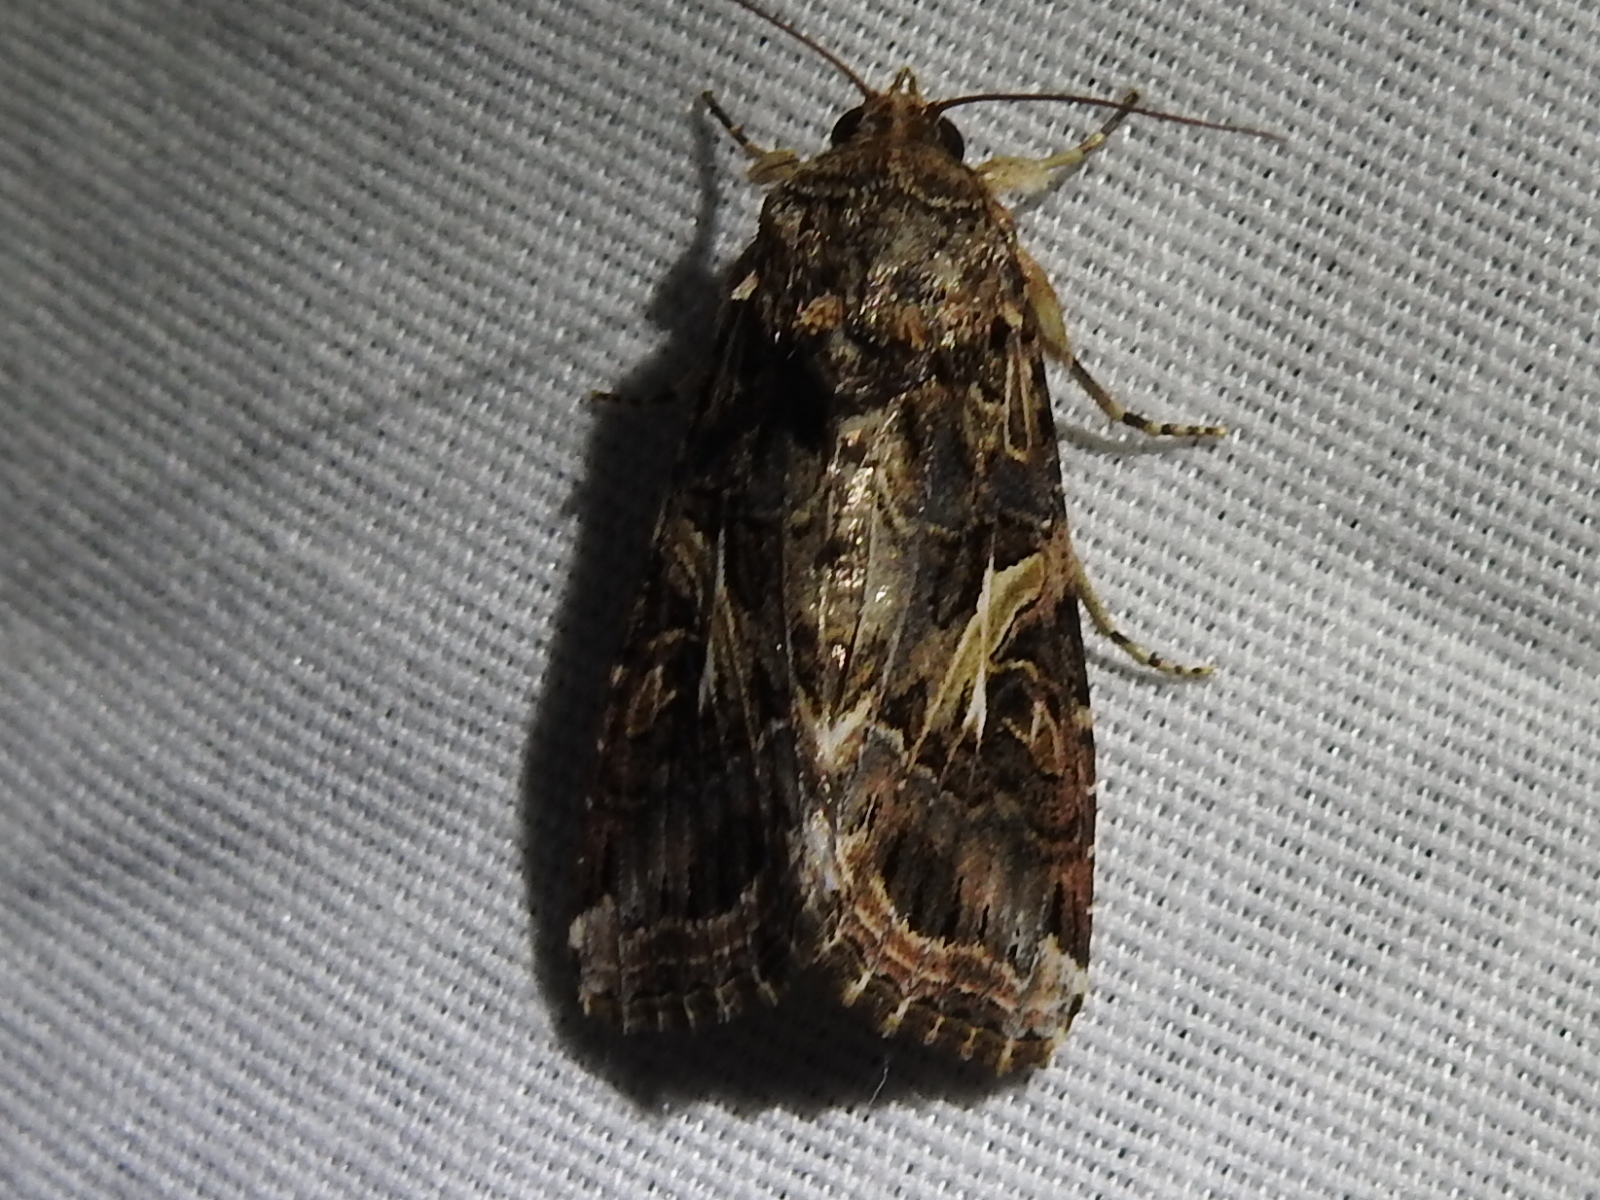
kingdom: Animalia
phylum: Arthropoda
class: Insecta
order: Lepidoptera
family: Noctuidae
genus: Spodoptera
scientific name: Spodoptera ornithogalli
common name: Yellow-striped armyworm
